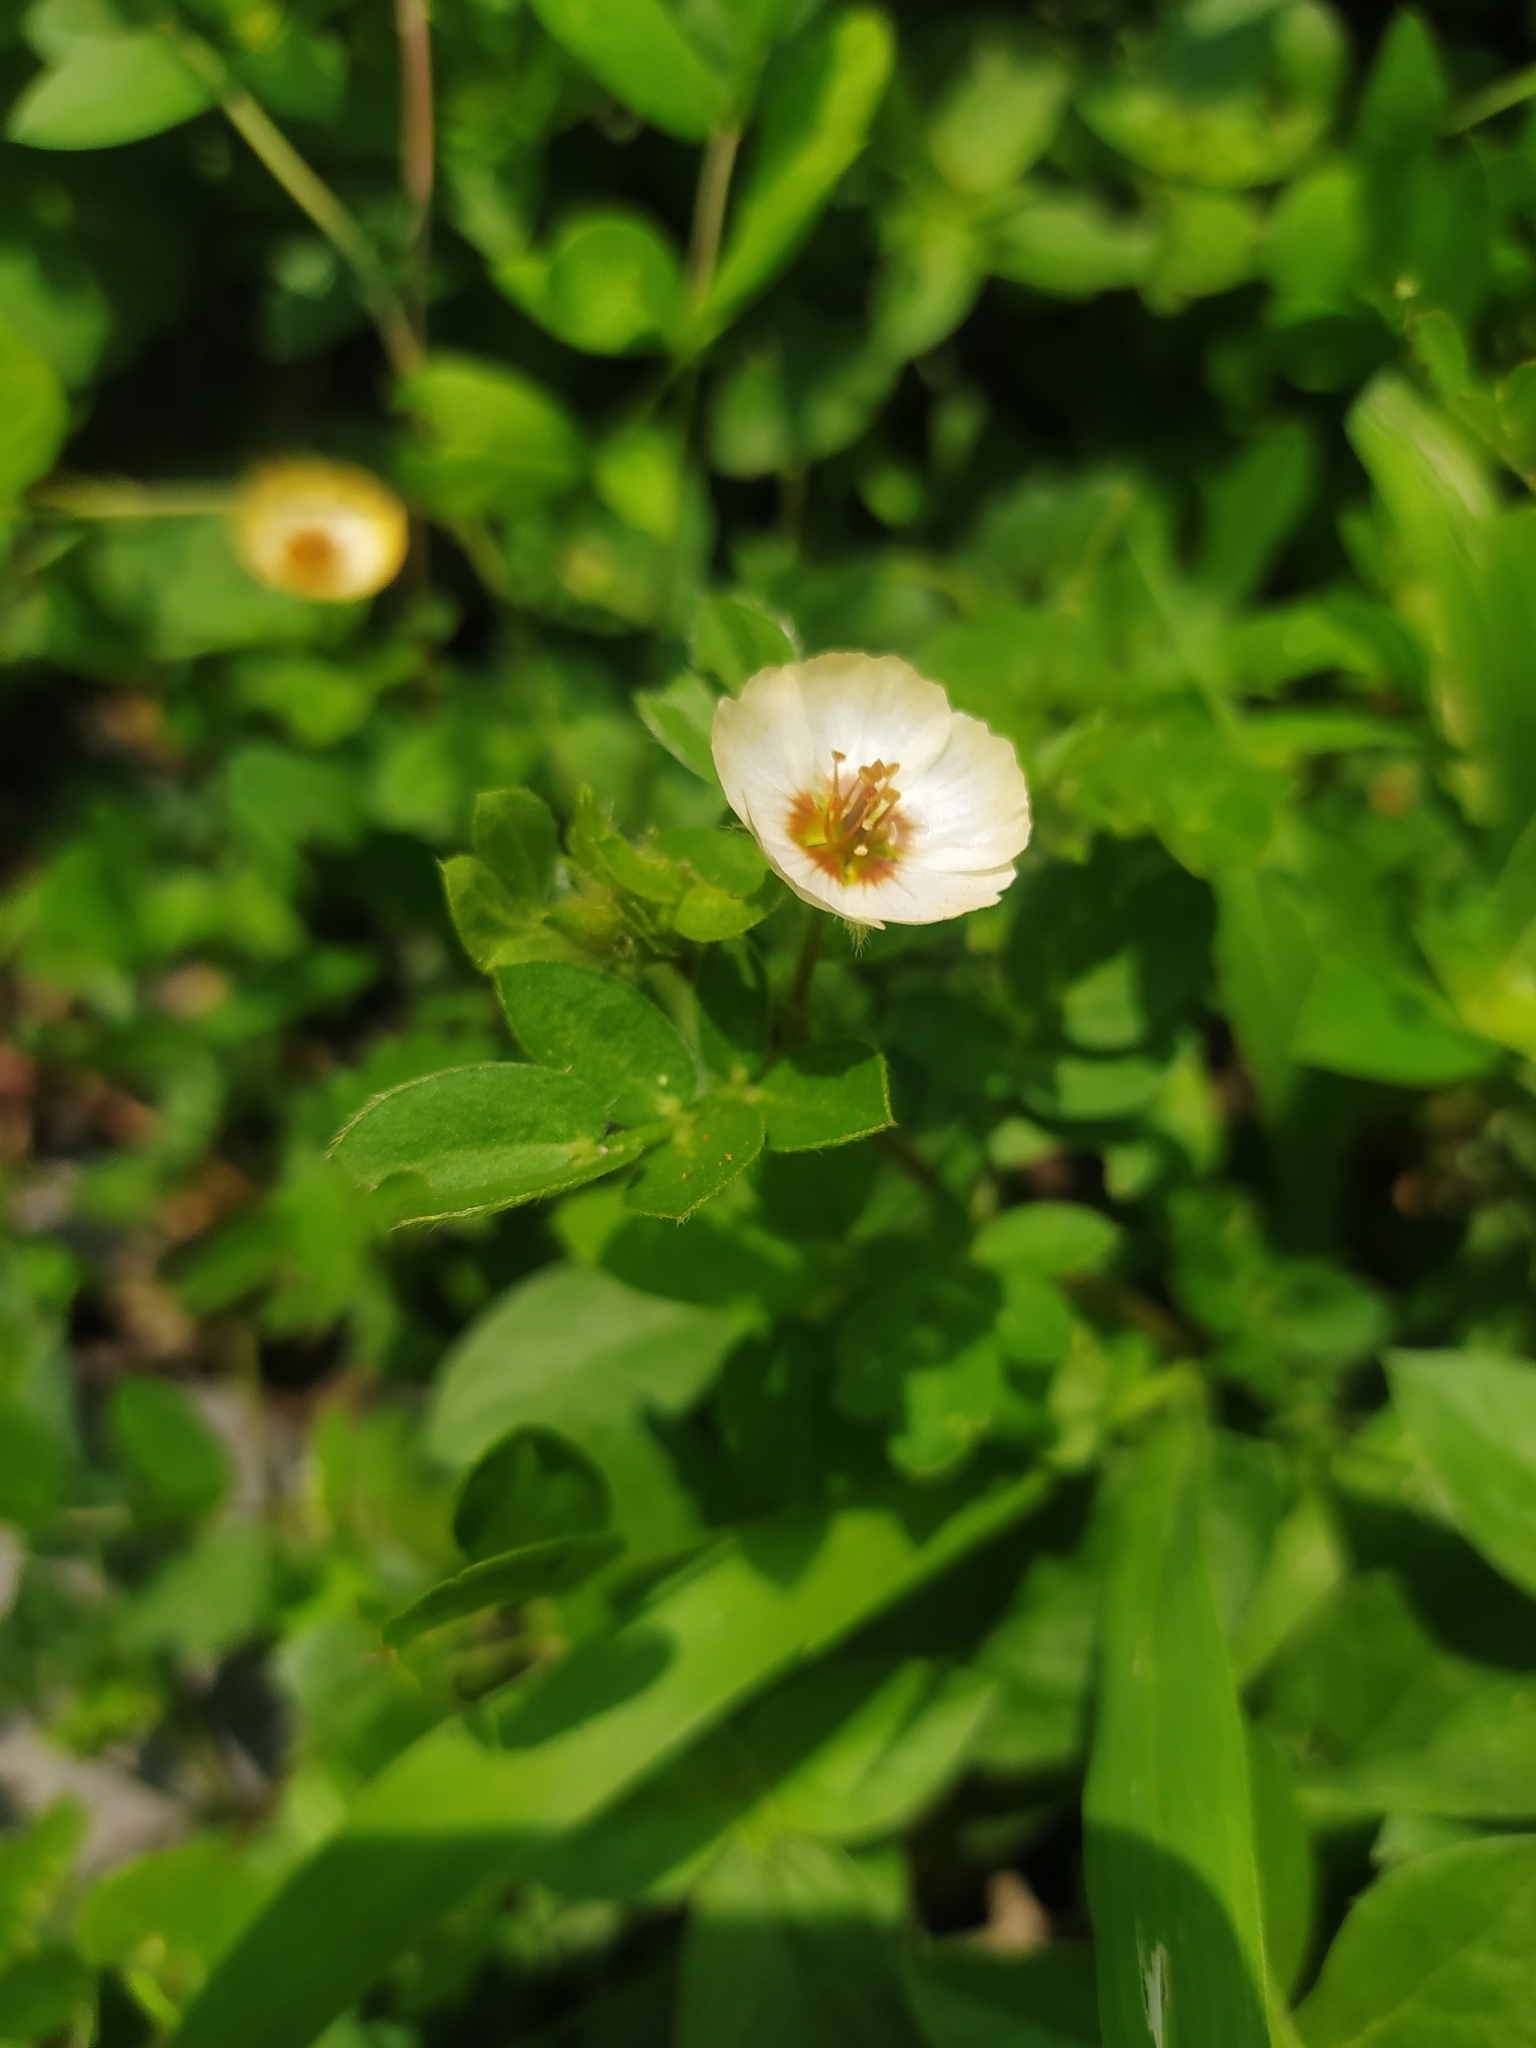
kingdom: Plantae
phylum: Tracheophyta
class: Magnoliopsida
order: Zygophyllales
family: Zygophyllaceae
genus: Kallstroemia
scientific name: Kallstroemia rosei
